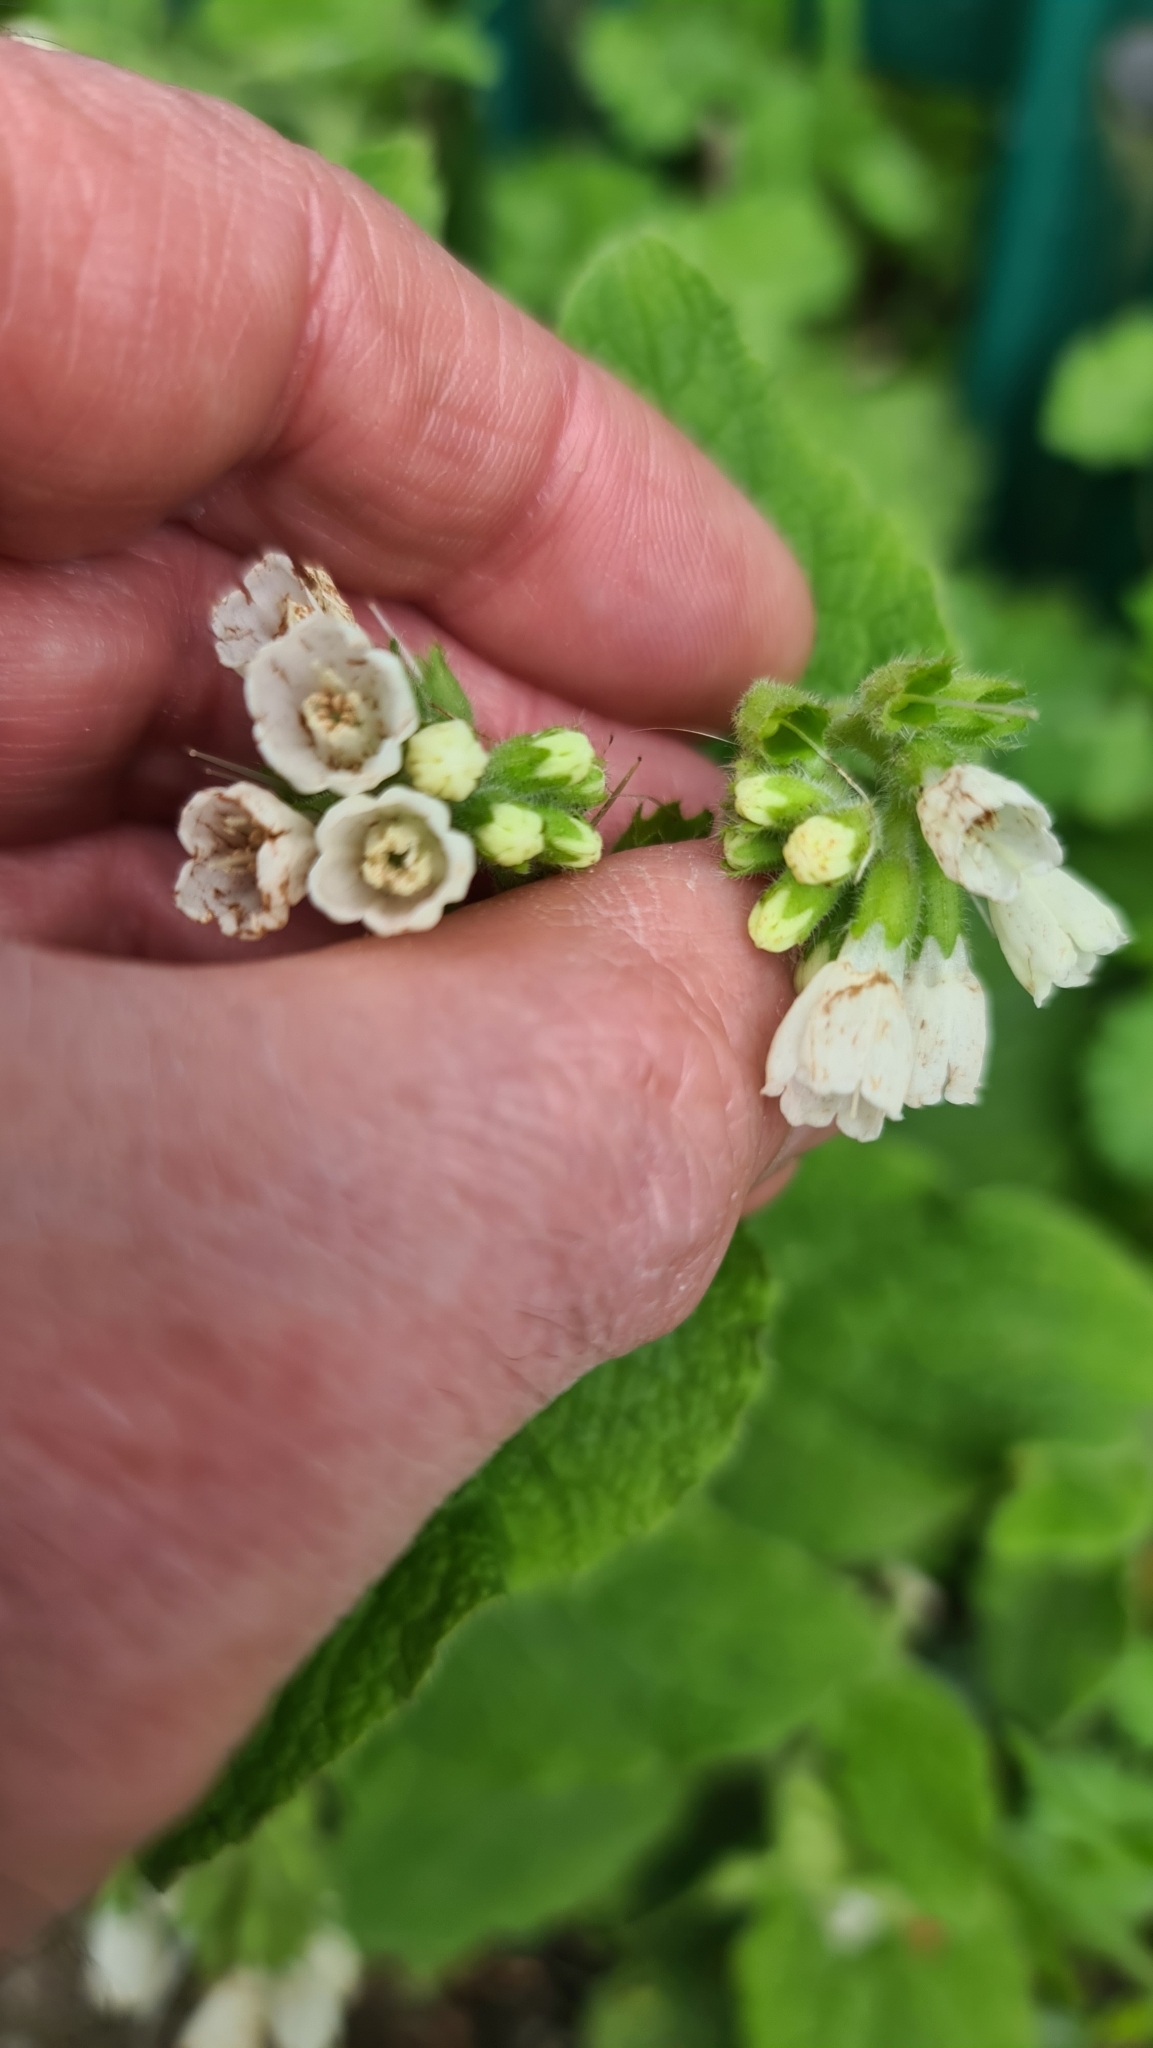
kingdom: Plantae
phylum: Tracheophyta
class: Magnoliopsida
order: Boraginales
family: Boraginaceae
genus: Symphytum
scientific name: Symphytum orientale
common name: White comfrey
